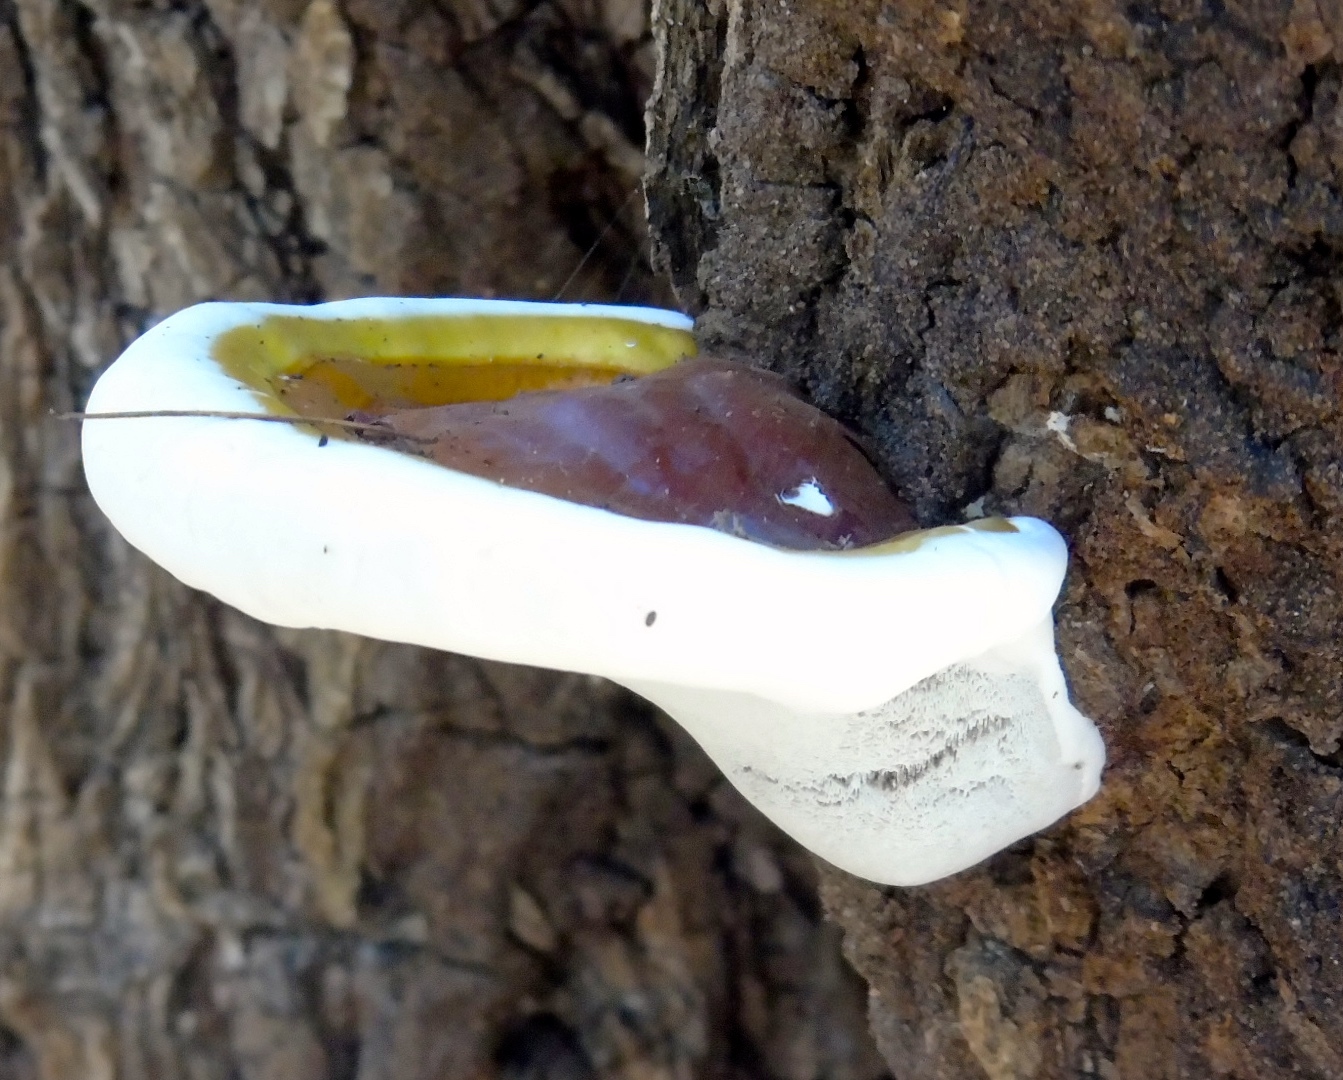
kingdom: Fungi
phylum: Basidiomycota
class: Agaricomycetes
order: Polyporales
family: Polyporaceae
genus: Ganoderma
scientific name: Ganoderma
